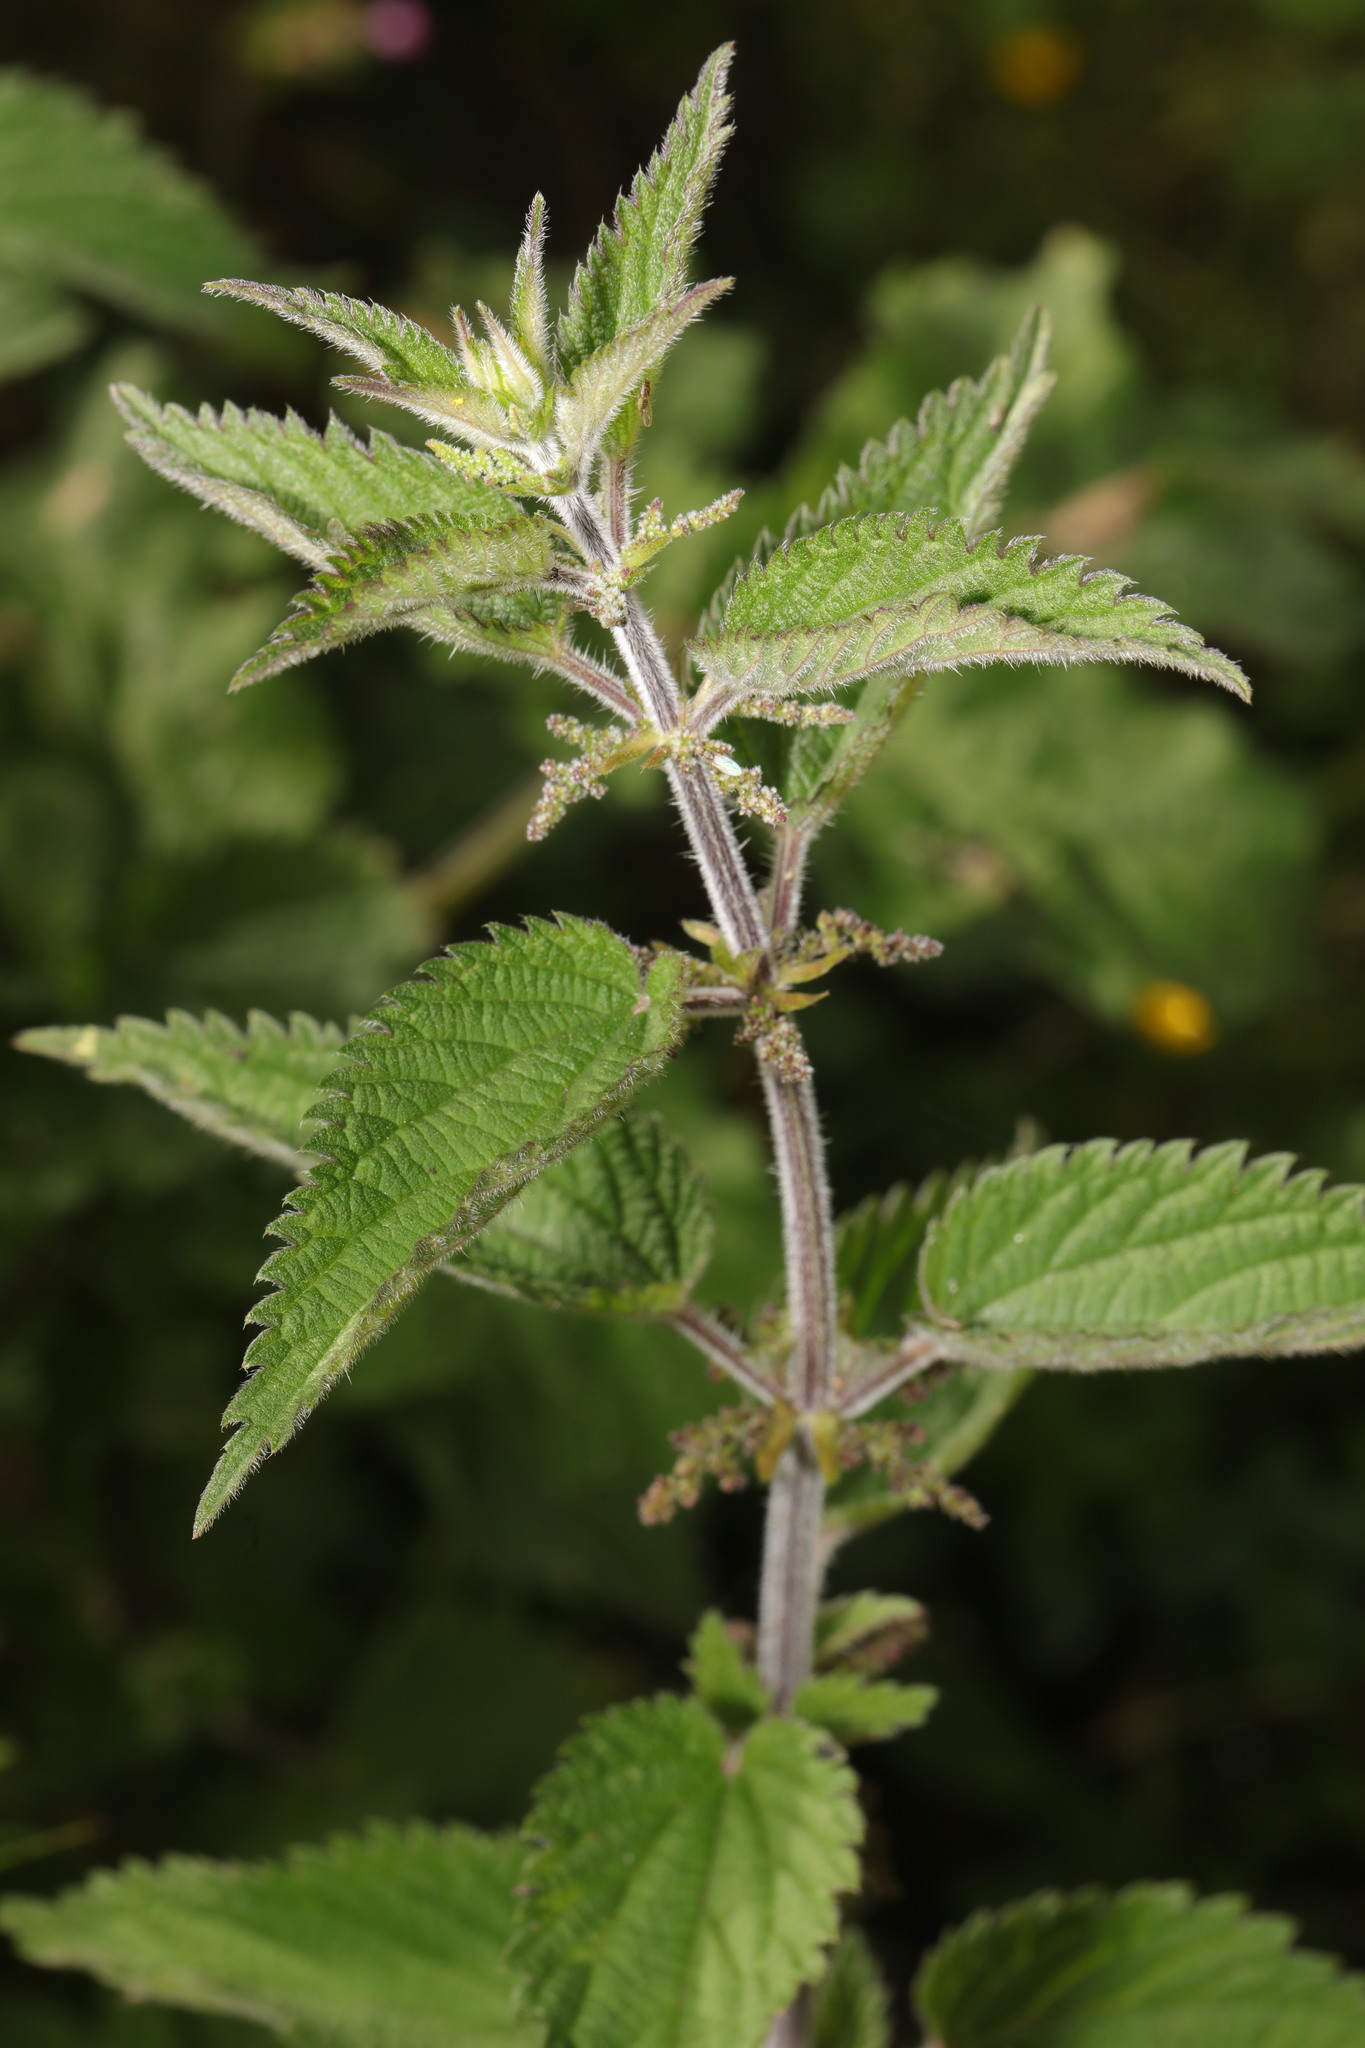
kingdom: Plantae
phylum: Tracheophyta
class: Magnoliopsida
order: Rosales
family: Urticaceae
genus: Urtica
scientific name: Urtica dioica
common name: Common nettle
